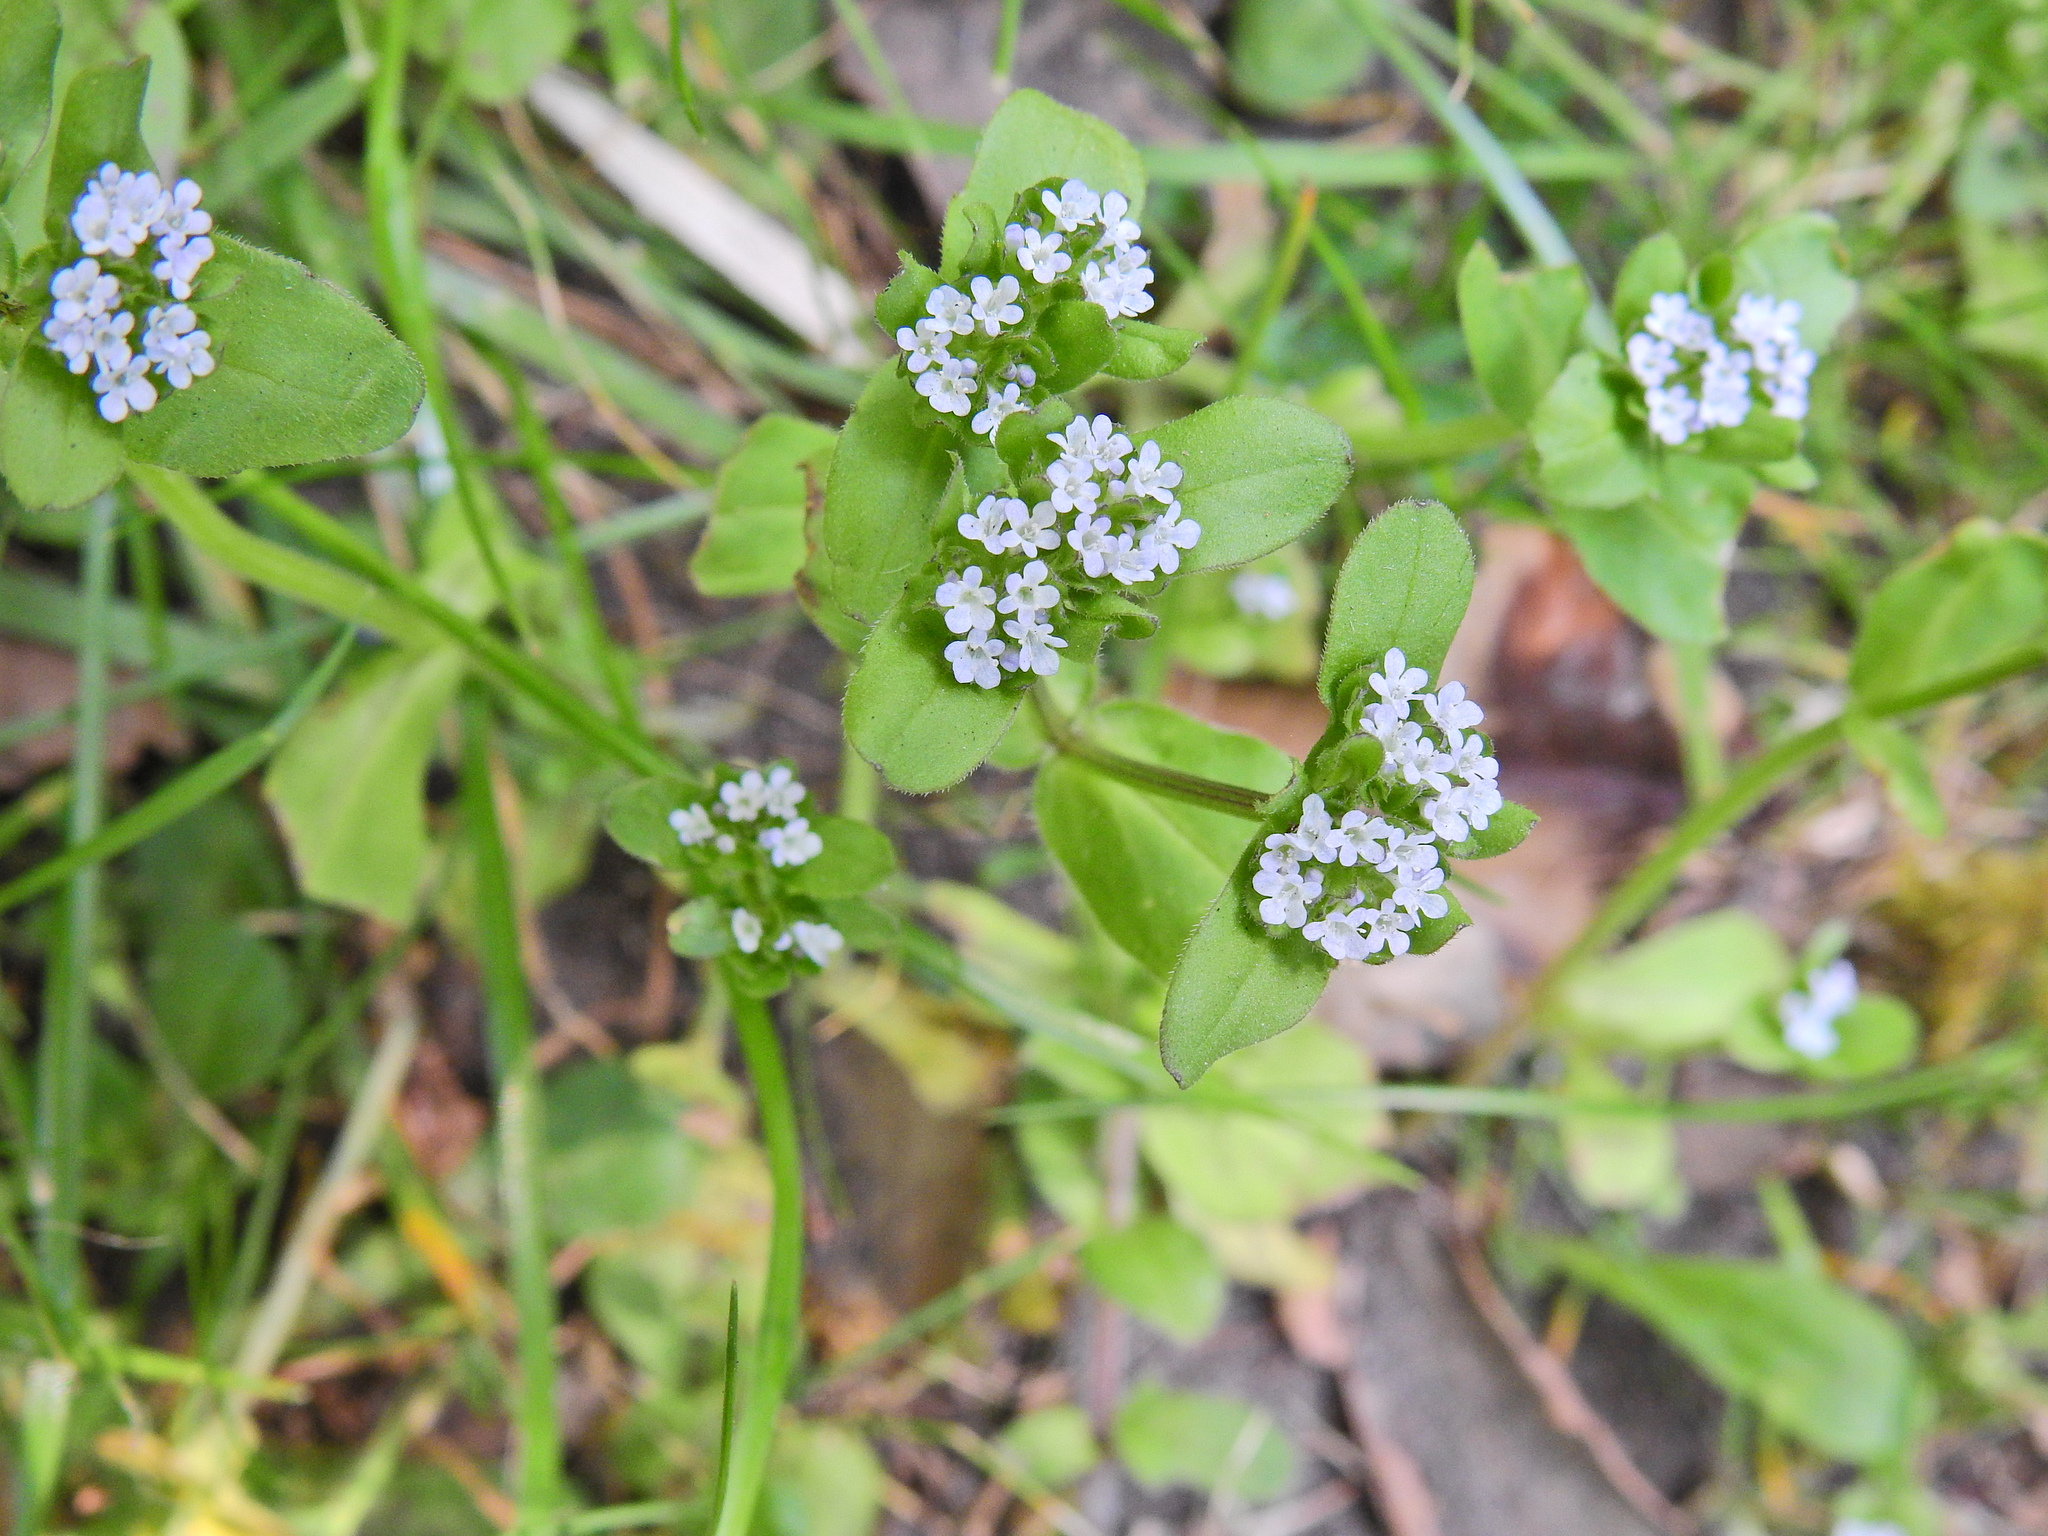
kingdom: Plantae
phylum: Tracheophyta
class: Magnoliopsida
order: Dipsacales
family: Caprifoliaceae
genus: Valerianella
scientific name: Valerianella
